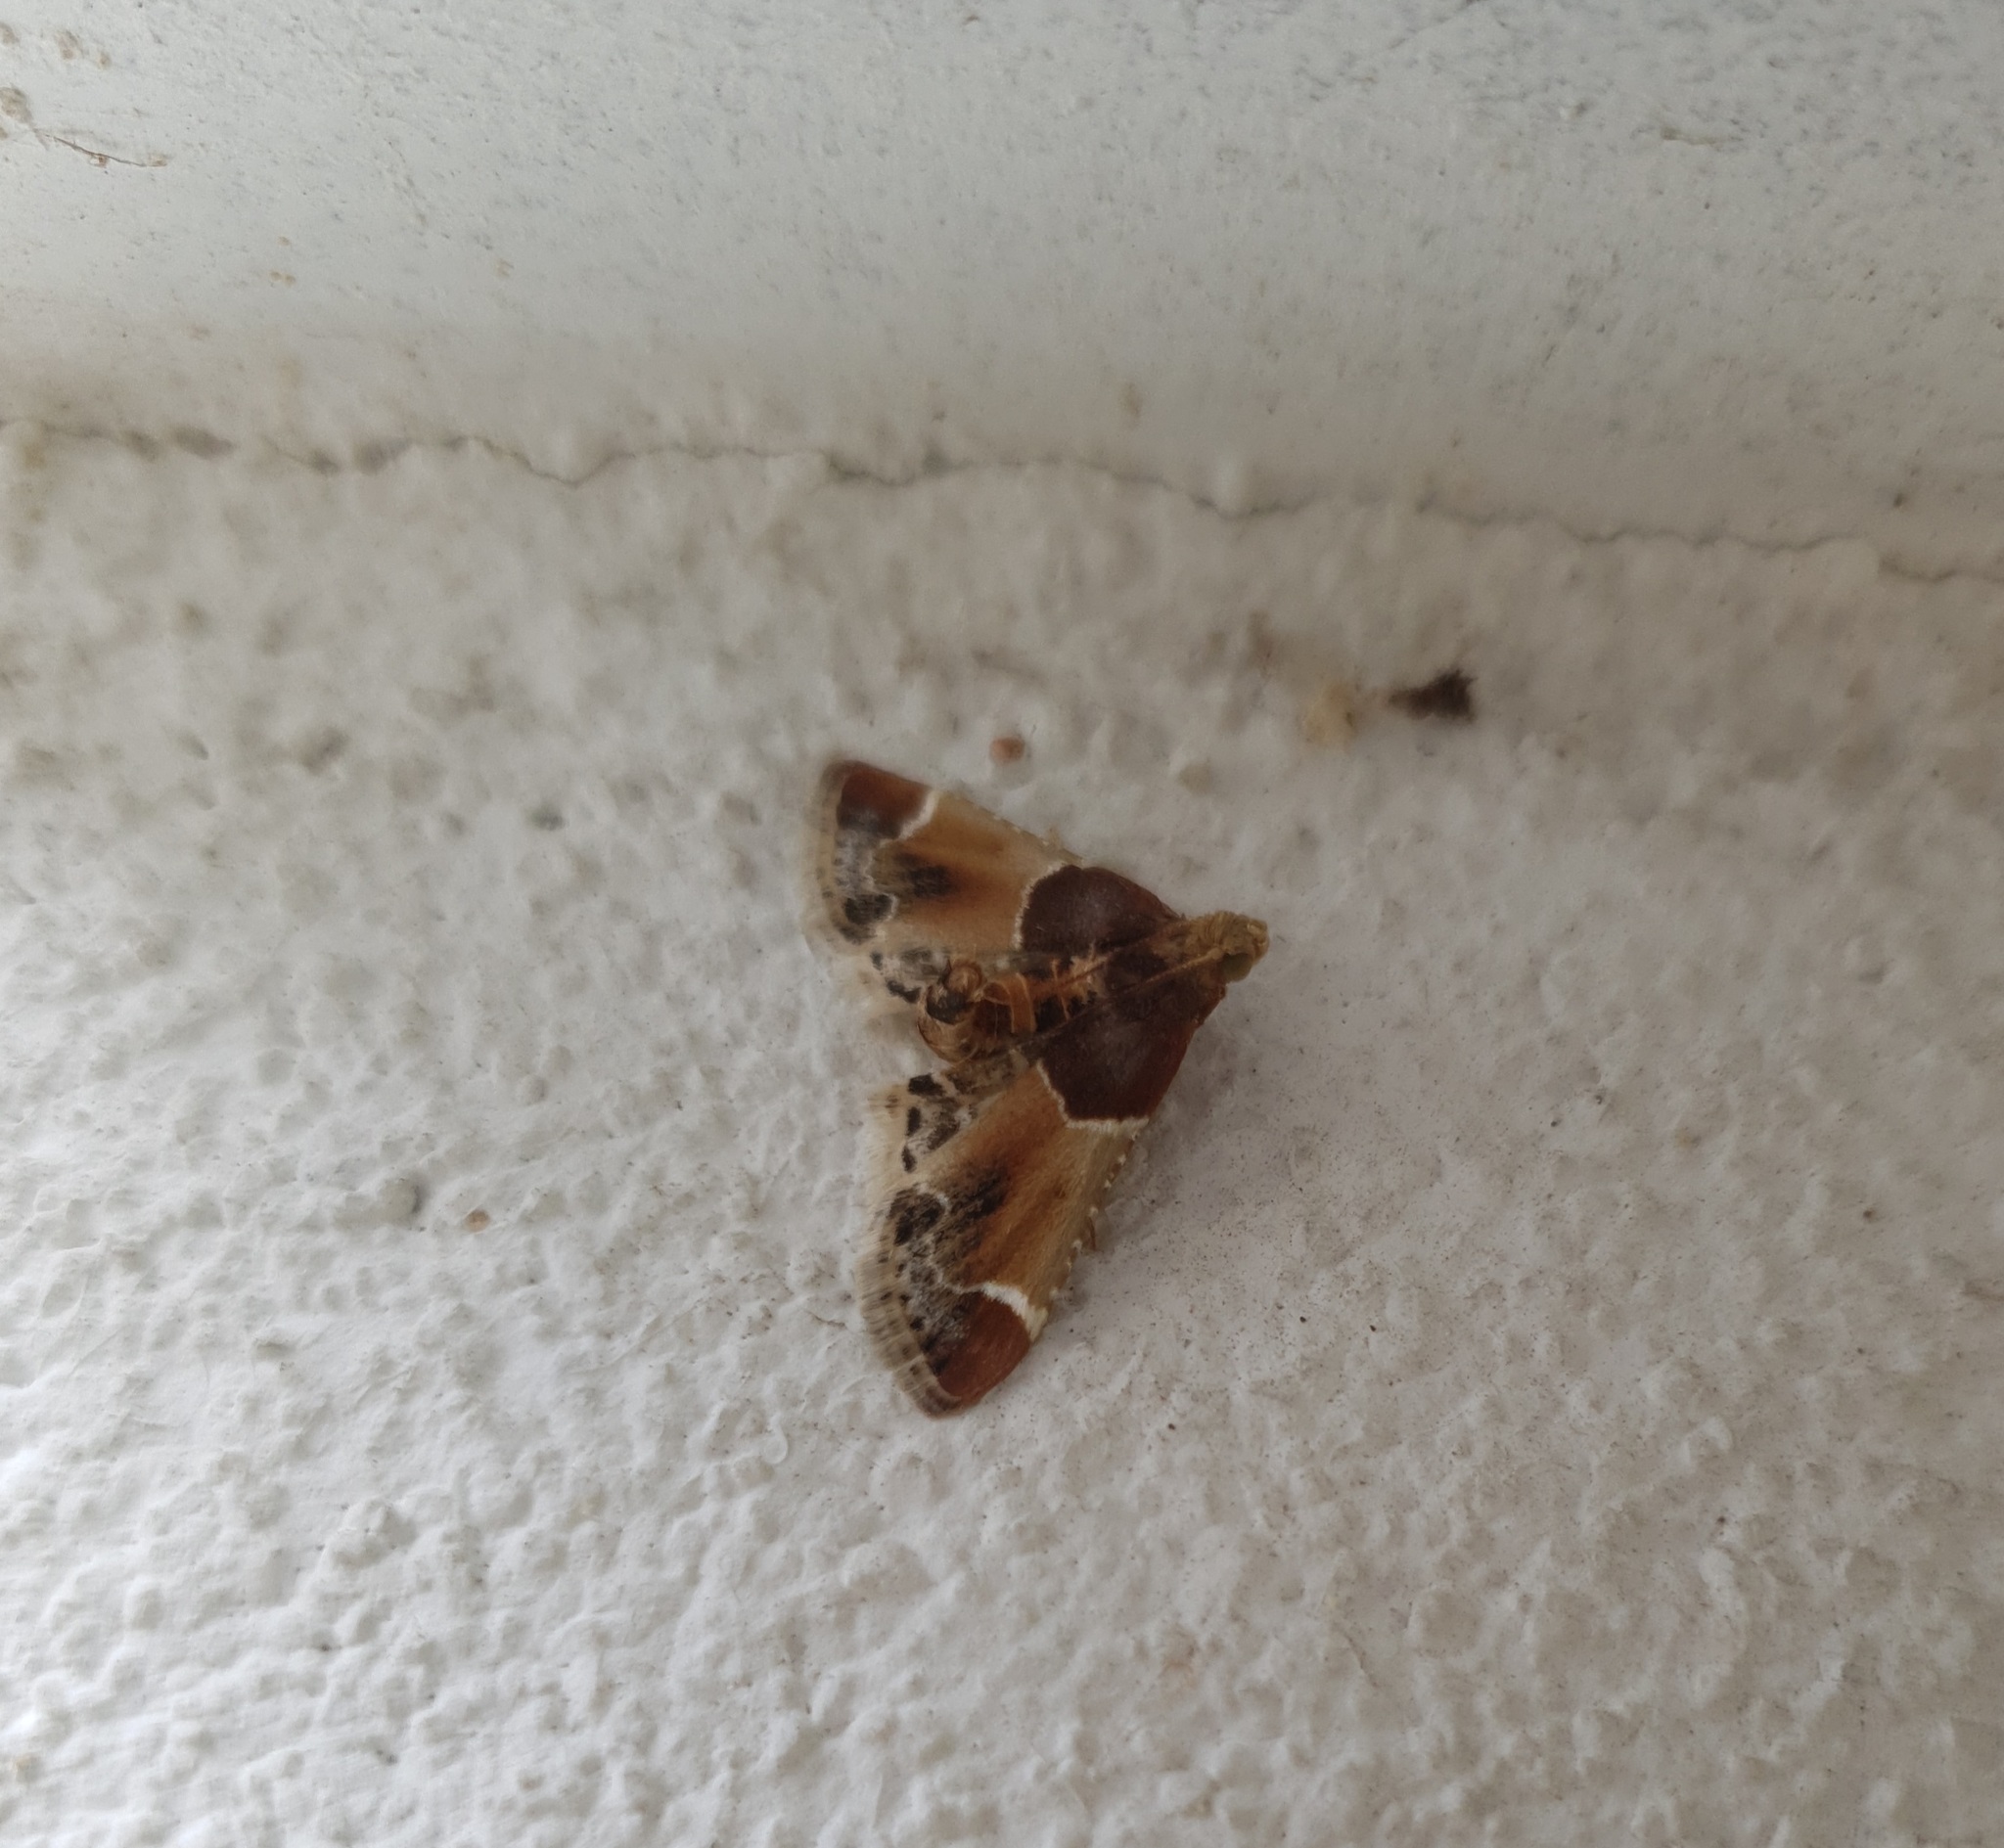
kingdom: Animalia
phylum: Arthropoda
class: Insecta
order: Lepidoptera
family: Pyralidae
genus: Pyralis
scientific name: Pyralis farinalis
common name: Meal moth
